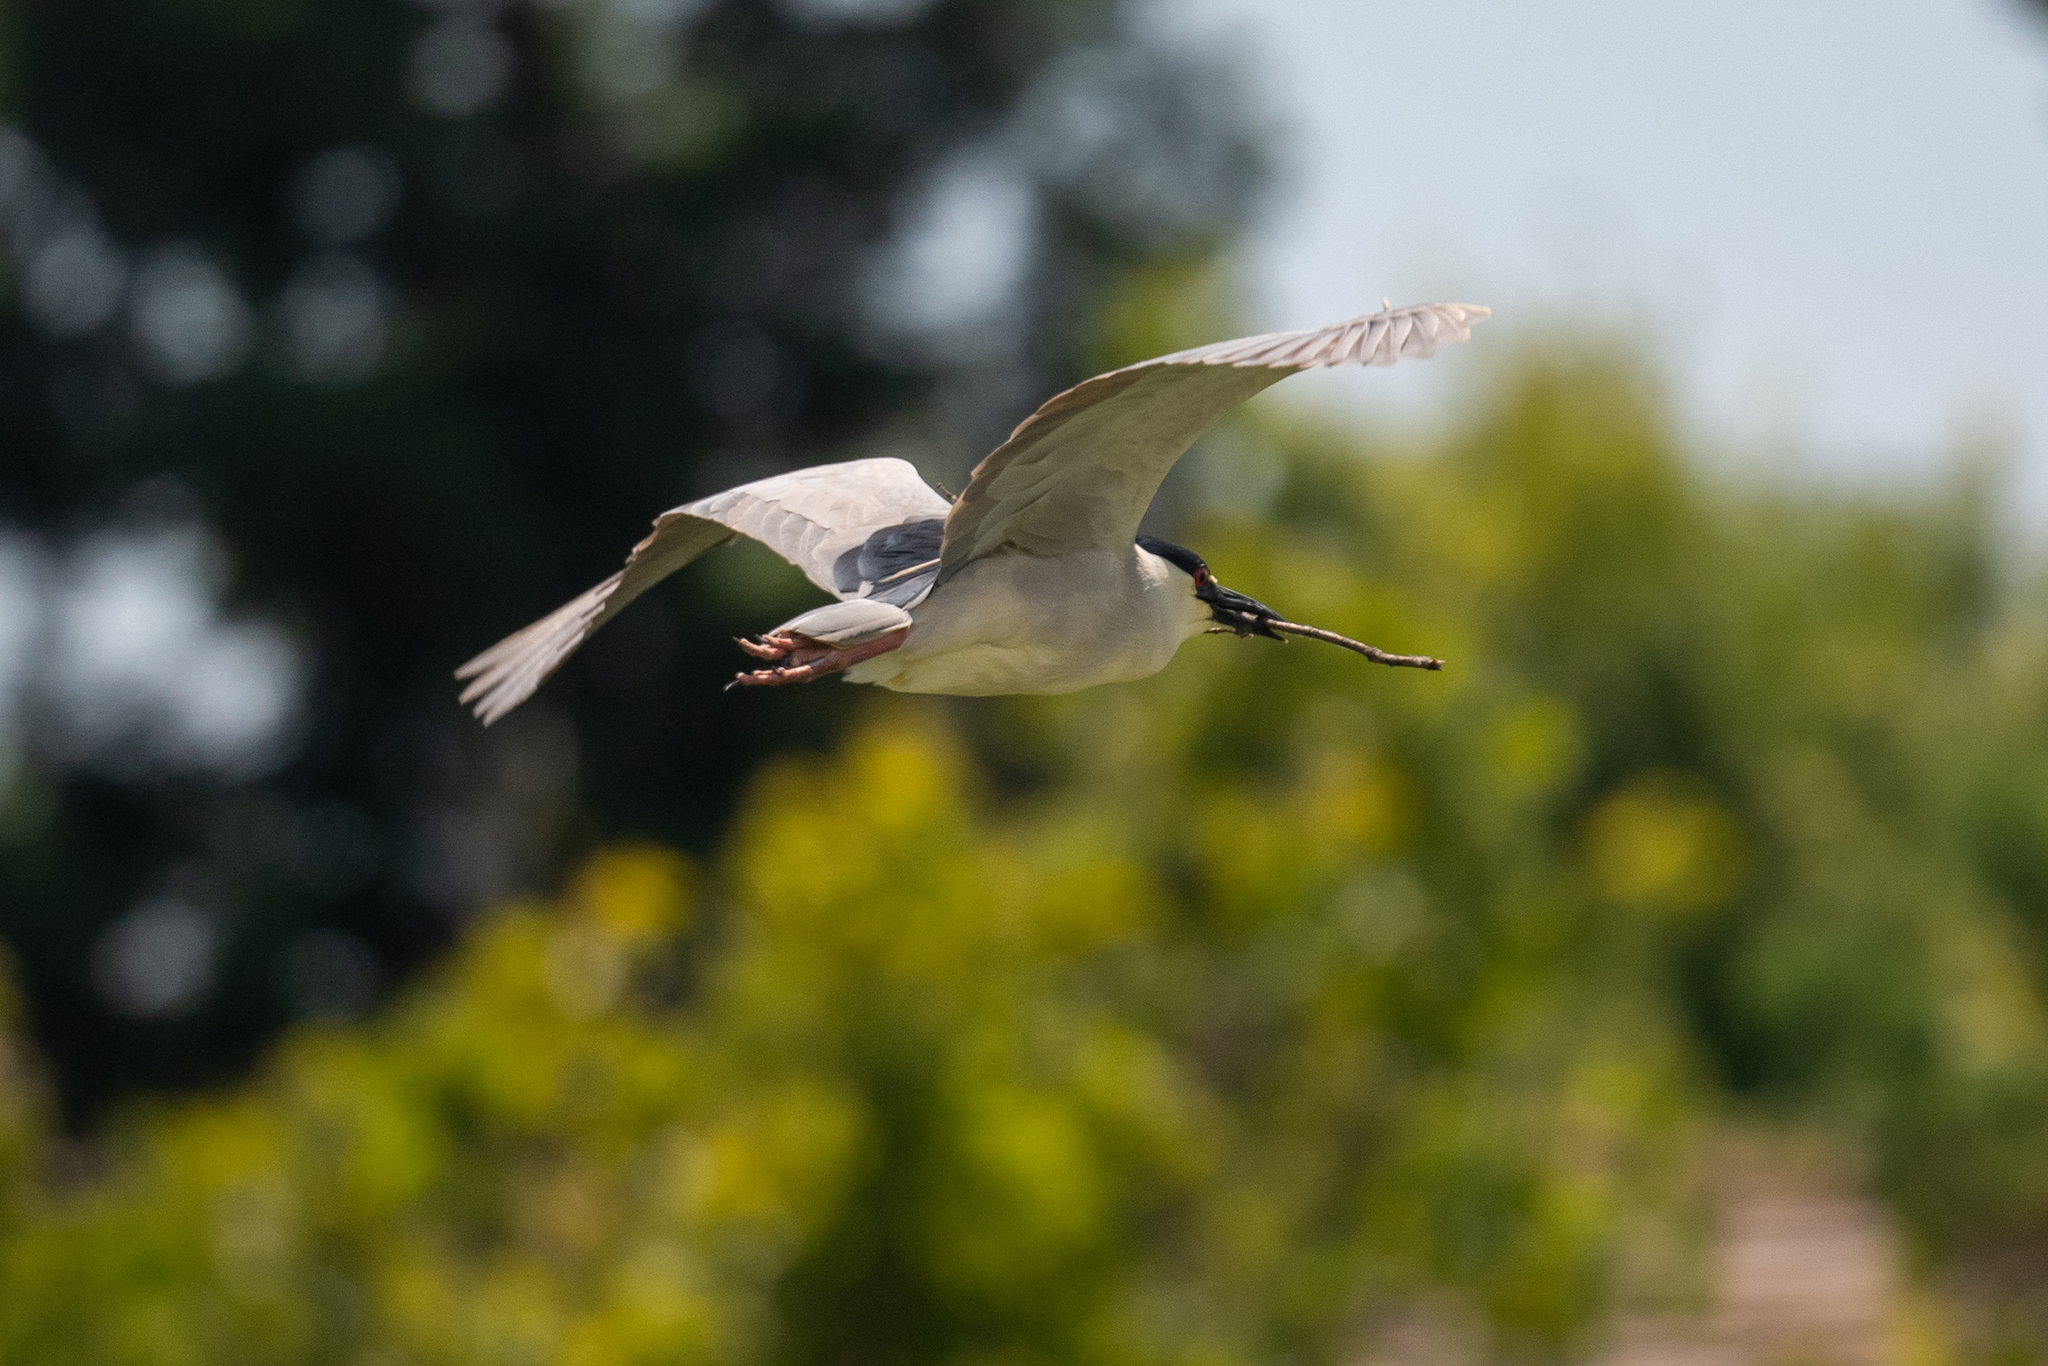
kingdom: Animalia
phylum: Chordata
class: Aves
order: Pelecaniformes
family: Ardeidae
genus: Nycticorax
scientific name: Nycticorax nycticorax
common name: Black-crowned night heron
